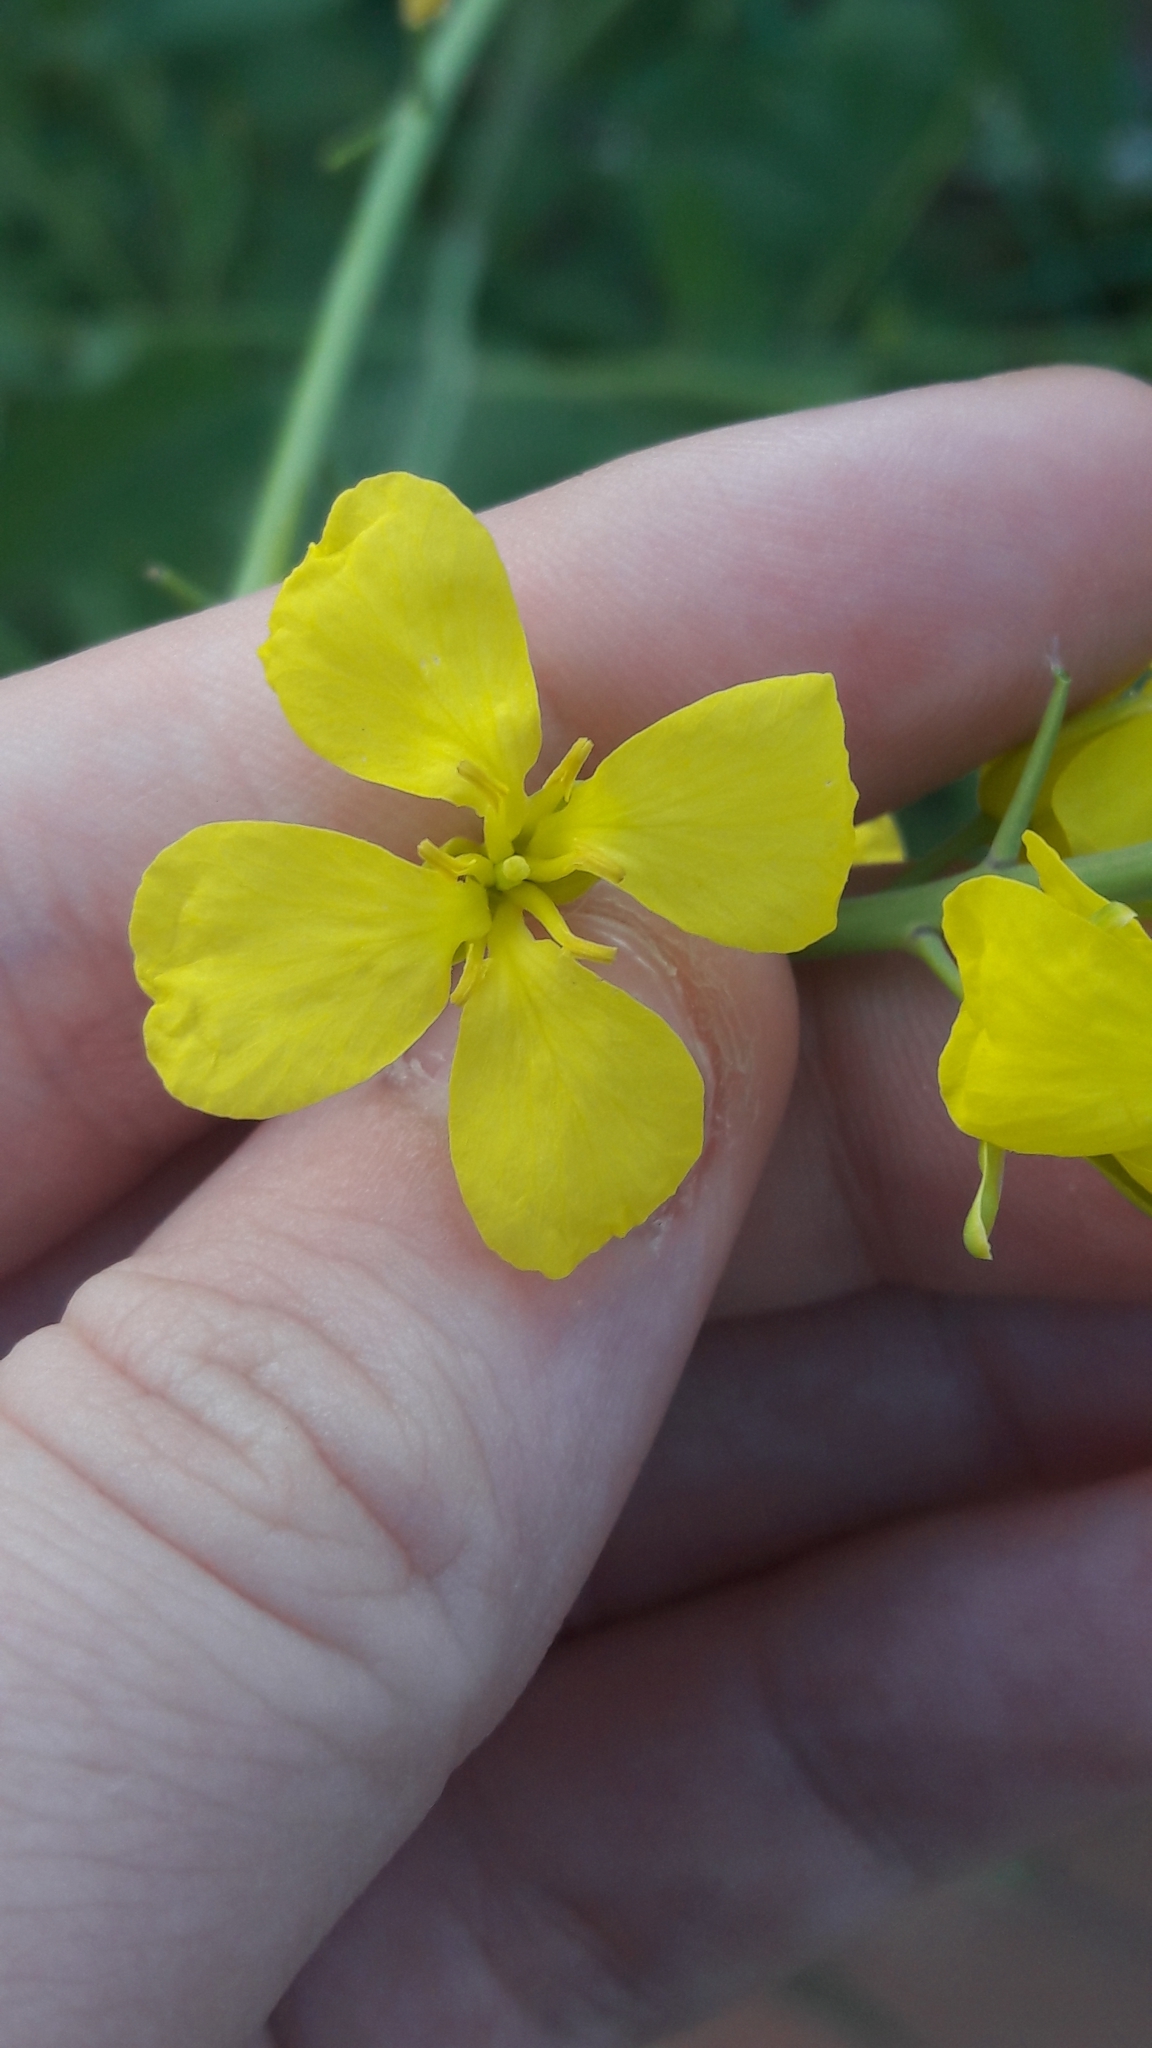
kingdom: Plantae
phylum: Tracheophyta
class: Magnoliopsida
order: Brassicales
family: Brassicaceae
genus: Brassica
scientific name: Brassica napus
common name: Rape
